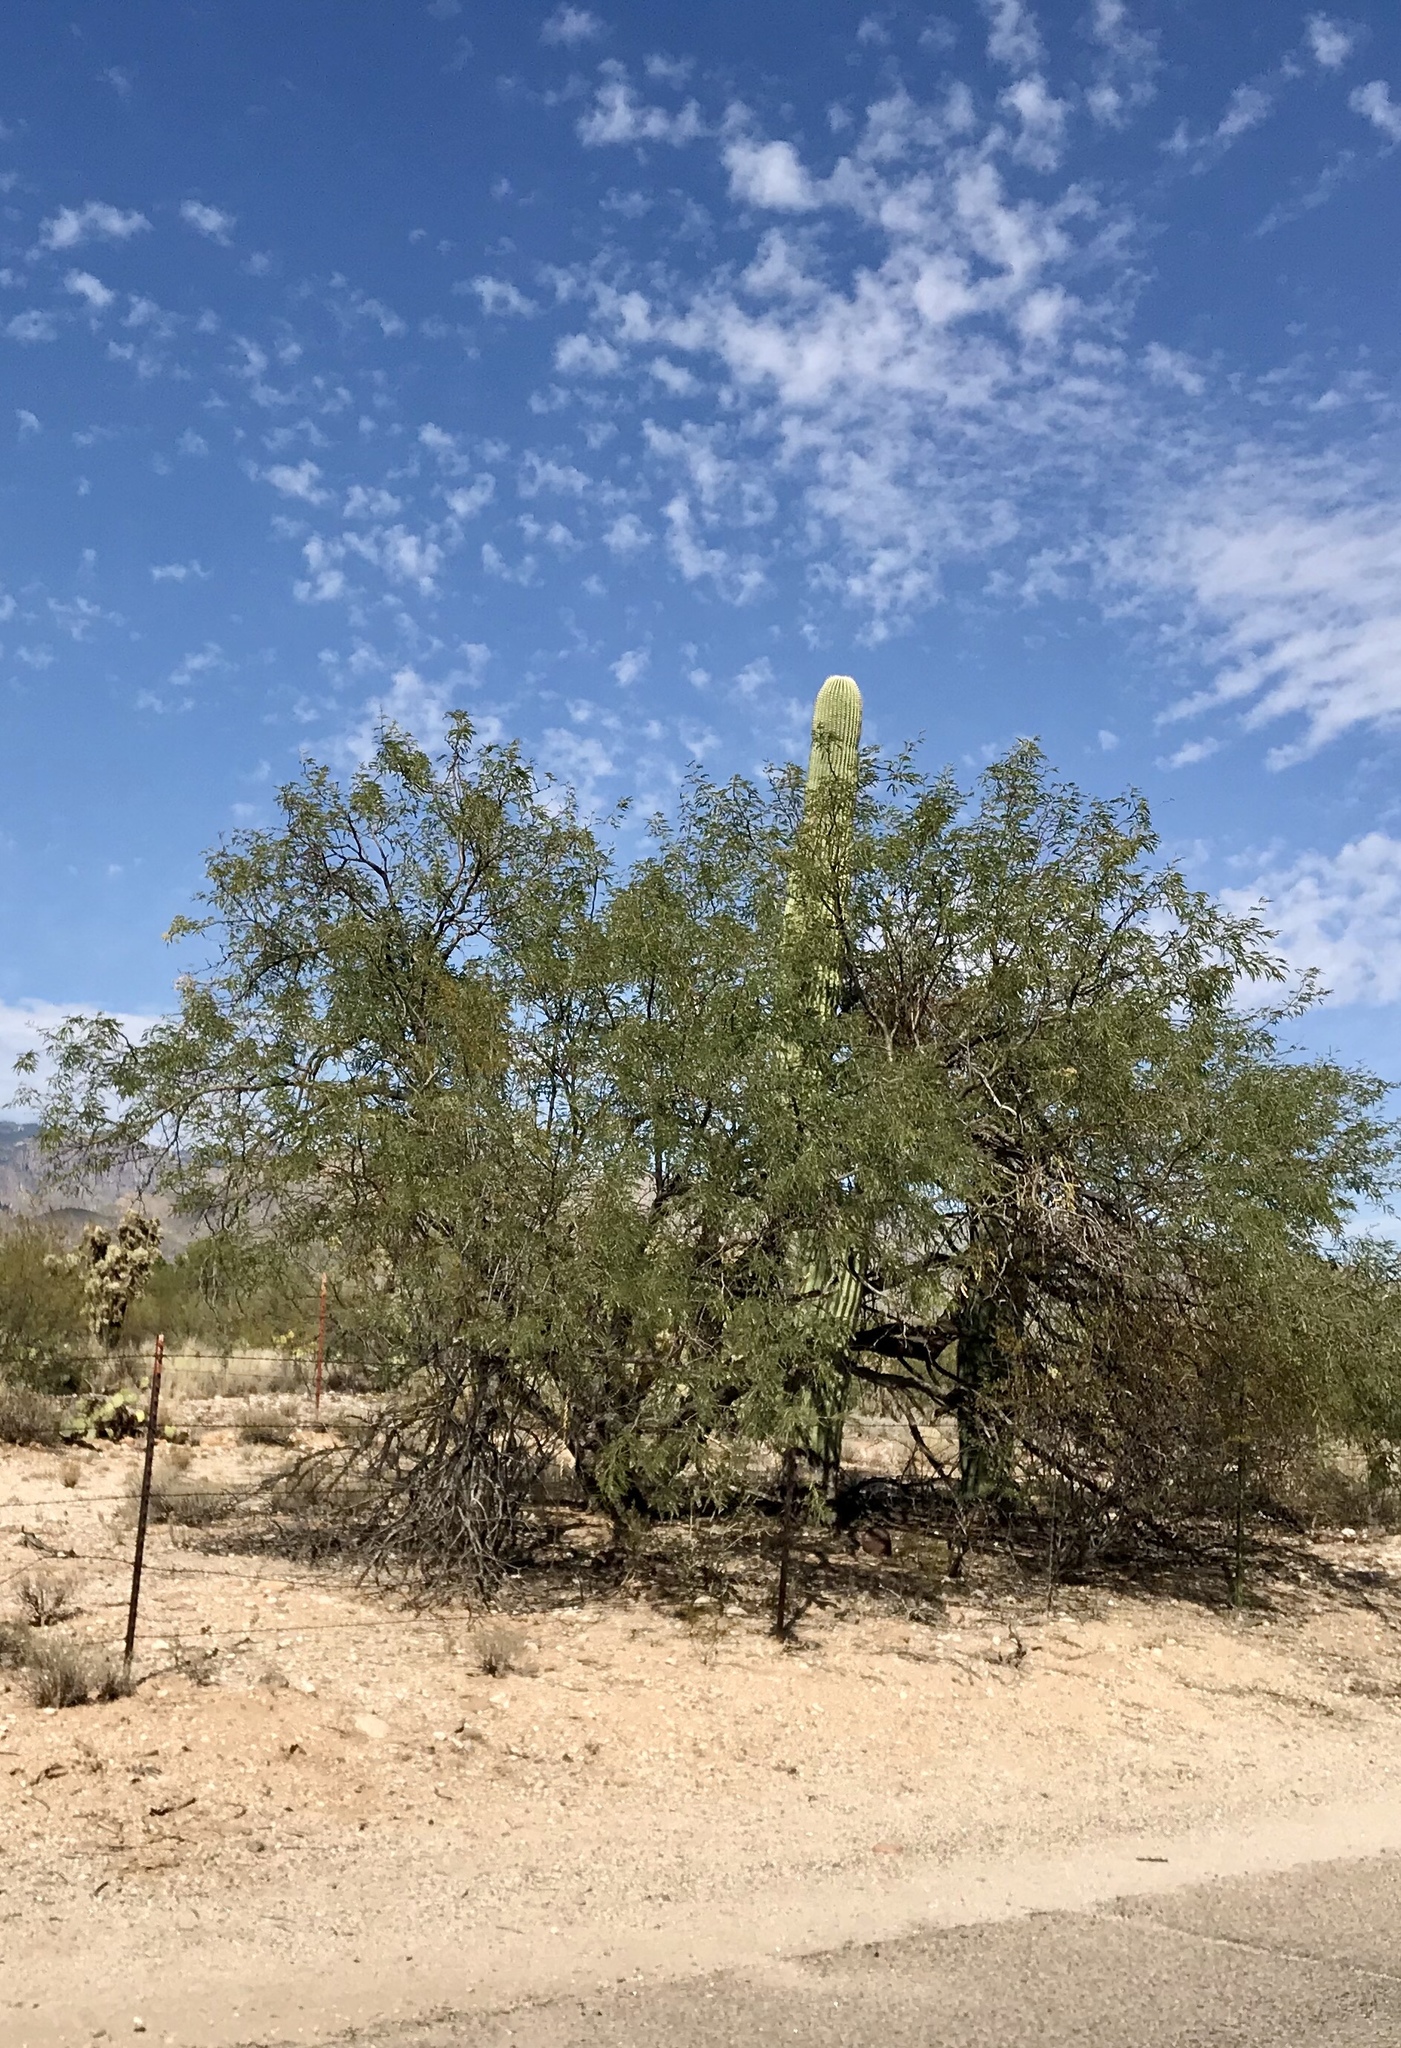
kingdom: Plantae
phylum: Tracheophyta
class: Magnoliopsida
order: Fabales
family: Fabaceae
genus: Prosopis
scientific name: Prosopis velutina
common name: Velvet mesquite
